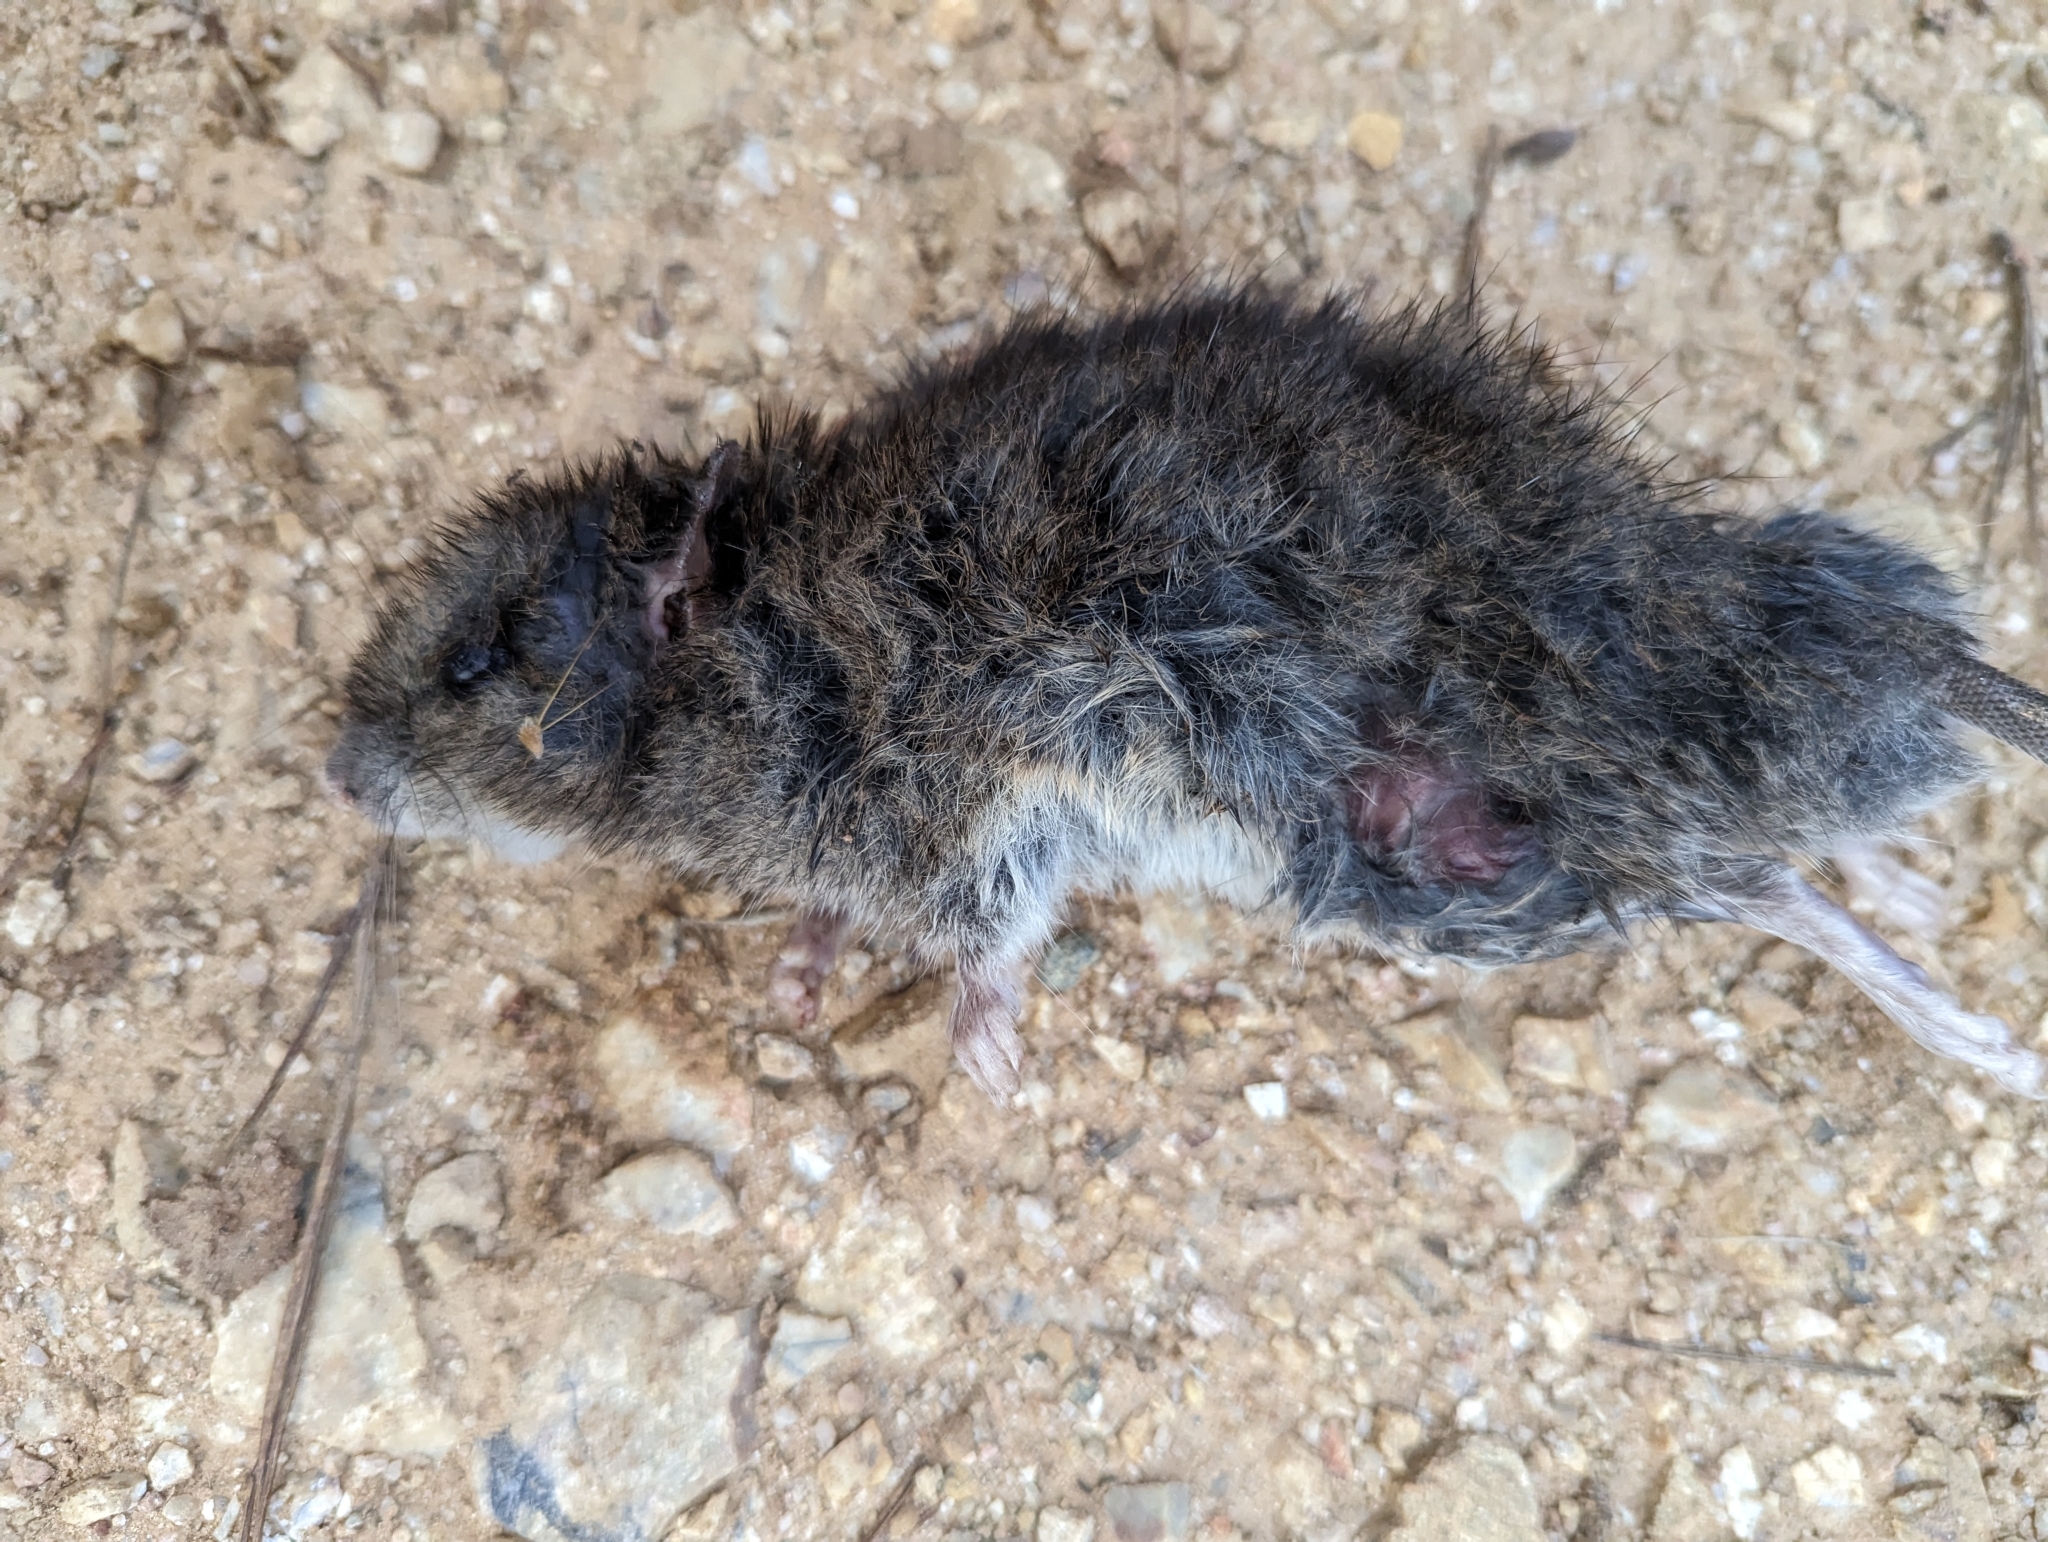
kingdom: Animalia
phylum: Chordata
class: Mammalia
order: Rodentia
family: Muridae
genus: Rattus
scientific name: Rattus fuscipes
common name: Australian bush rat
